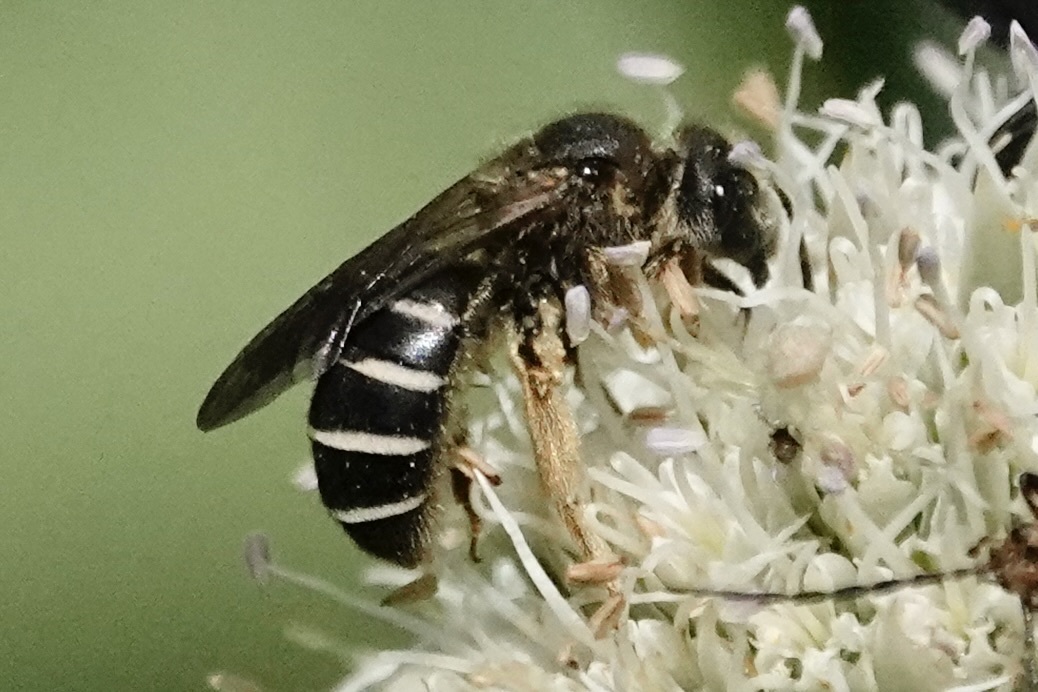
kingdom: Animalia
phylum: Arthropoda
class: Insecta
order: Hymenoptera
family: Halictidae
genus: Halictus
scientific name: Halictus rubicundus
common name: Orange-legged furrow bee
